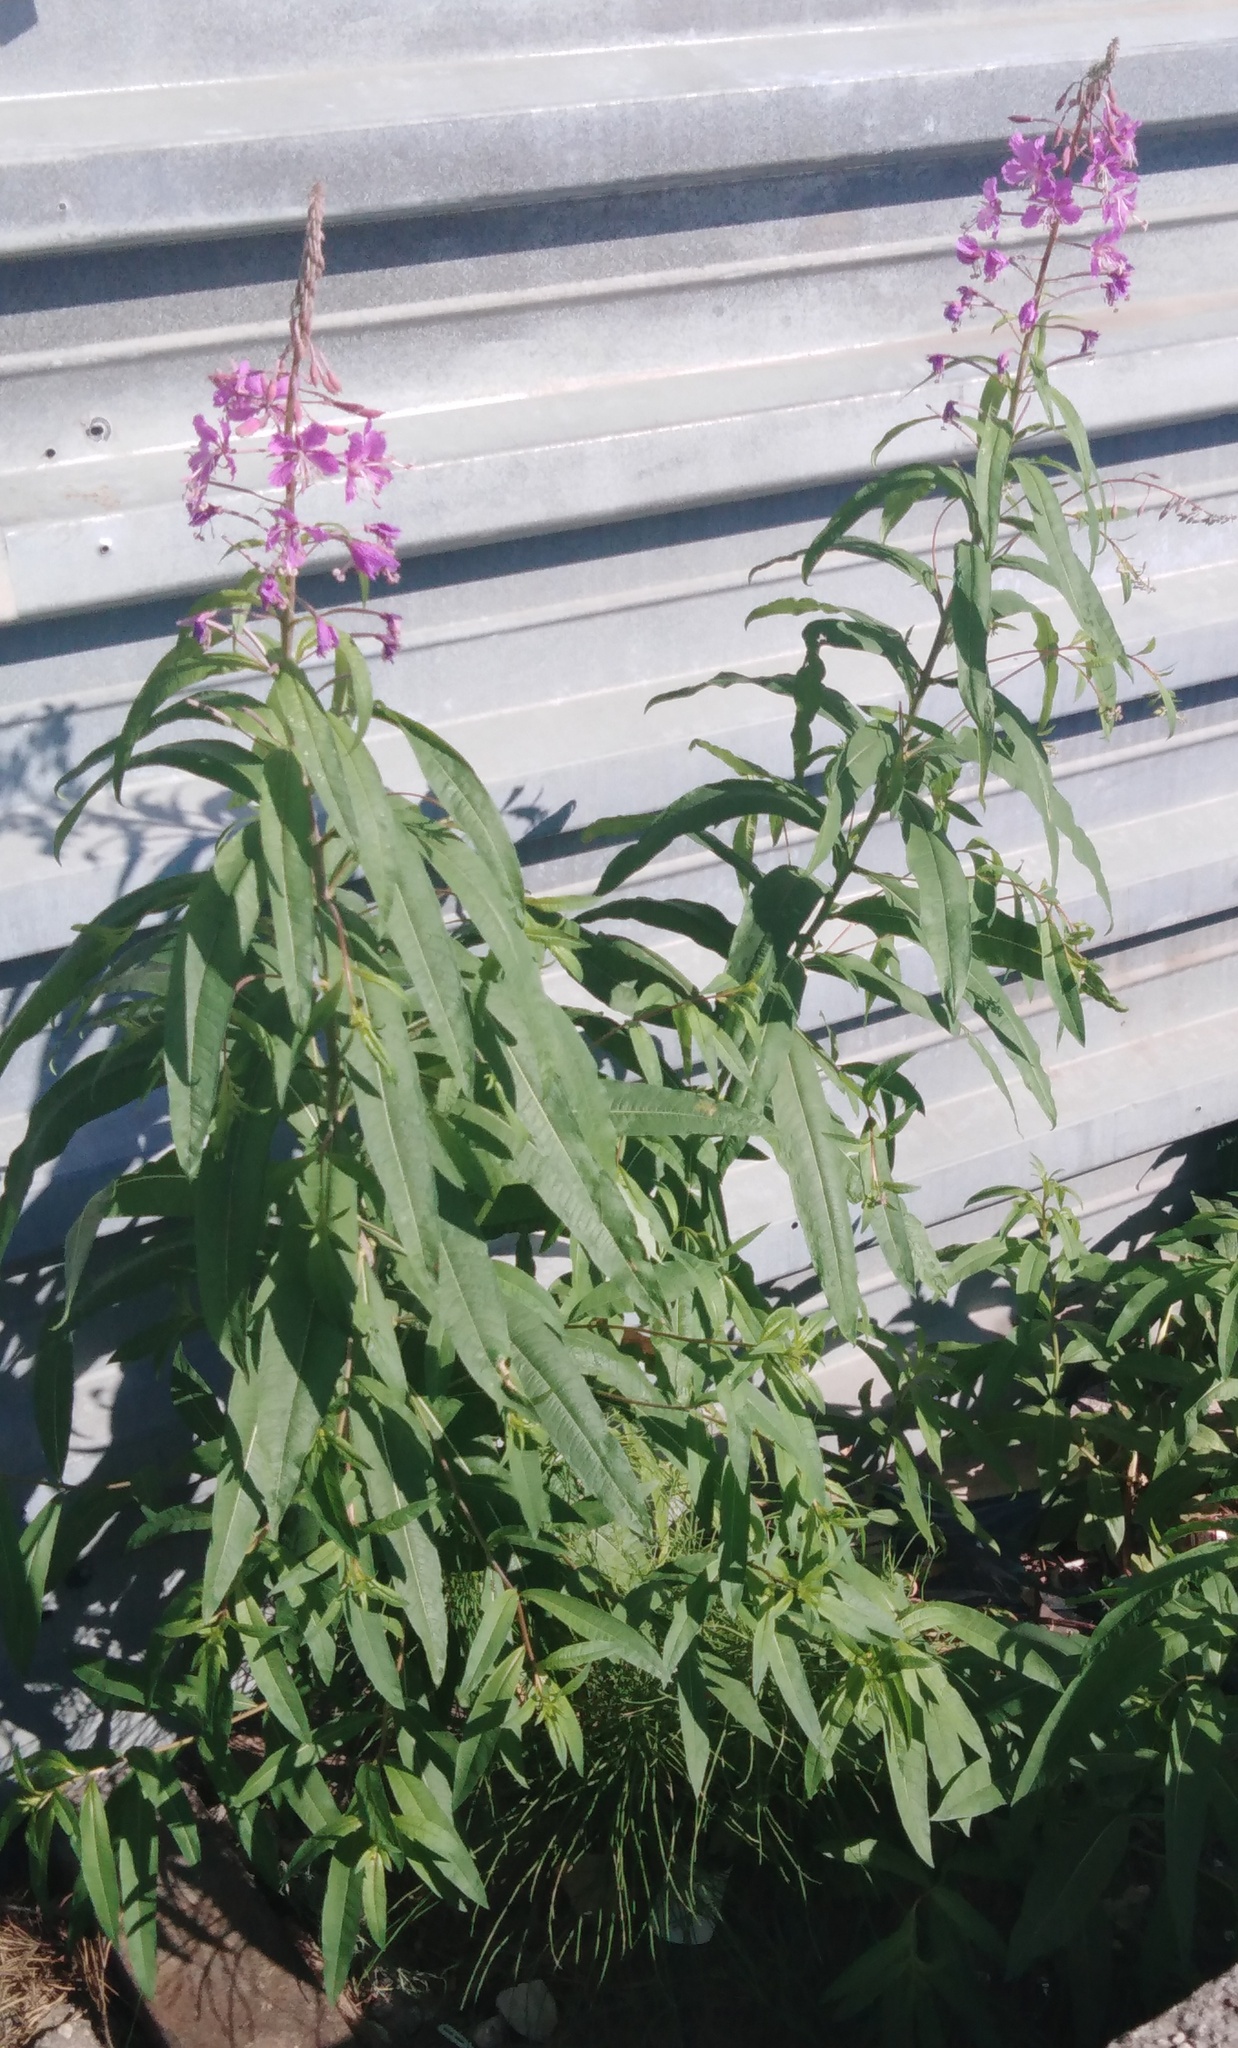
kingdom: Plantae
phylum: Tracheophyta
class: Magnoliopsida
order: Myrtales
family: Onagraceae
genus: Chamaenerion
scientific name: Chamaenerion angustifolium
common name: Fireweed
